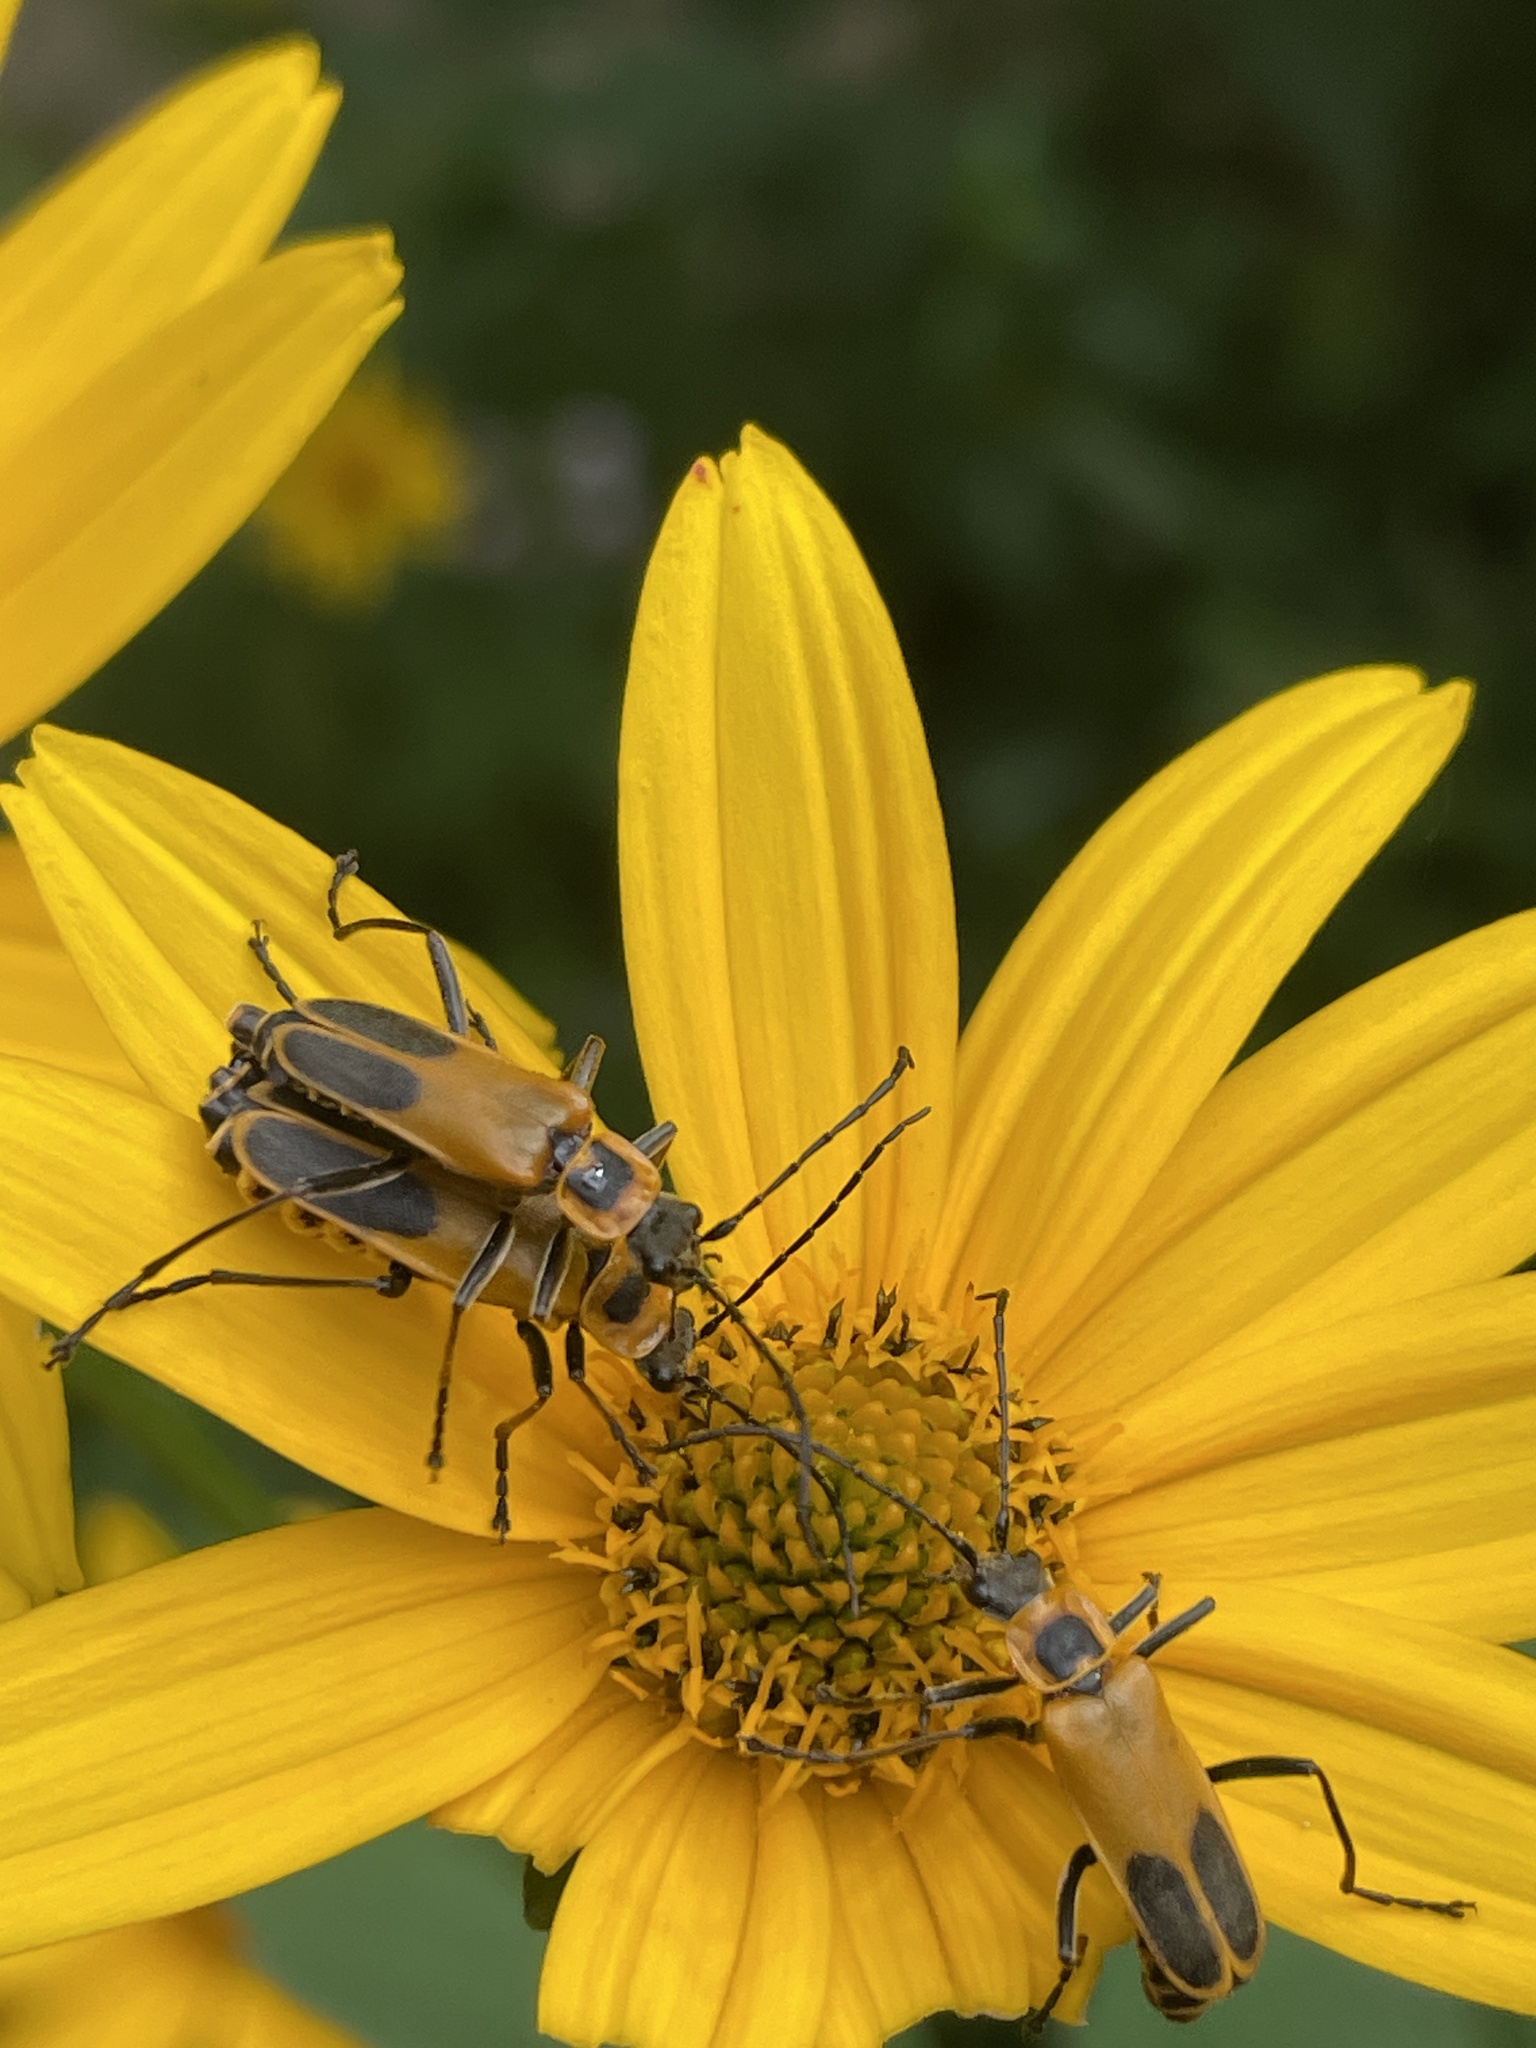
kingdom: Animalia
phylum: Arthropoda
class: Insecta
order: Coleoptera
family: Cantharidae
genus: Chauliognathus
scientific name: Chauliognathus pensylvanicus
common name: Goldenrod soldier beetle
